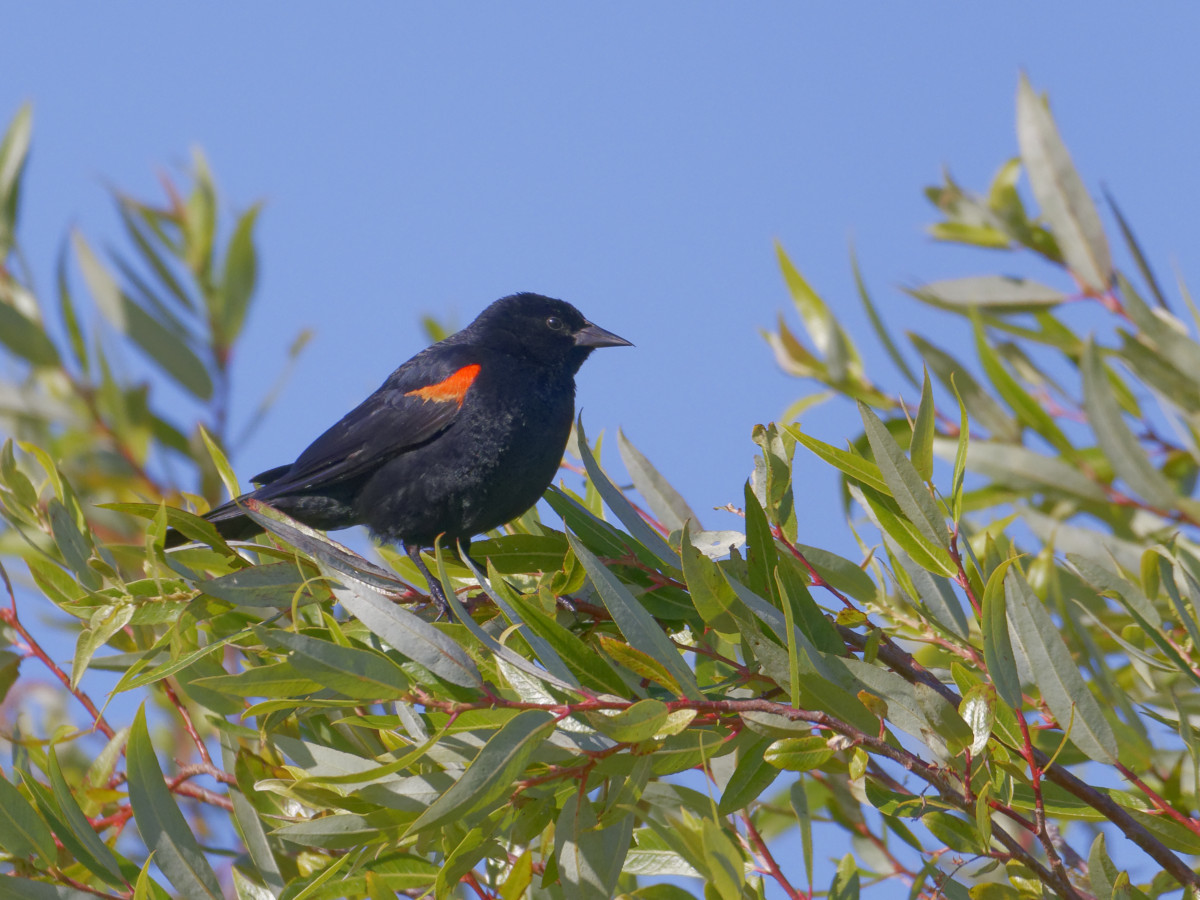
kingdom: Animalia
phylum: Chordata
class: Aves
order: Passeriformes
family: Icteridae
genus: Agelaius
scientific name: Agelaius phoeniceus
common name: Red-winged blackbird
